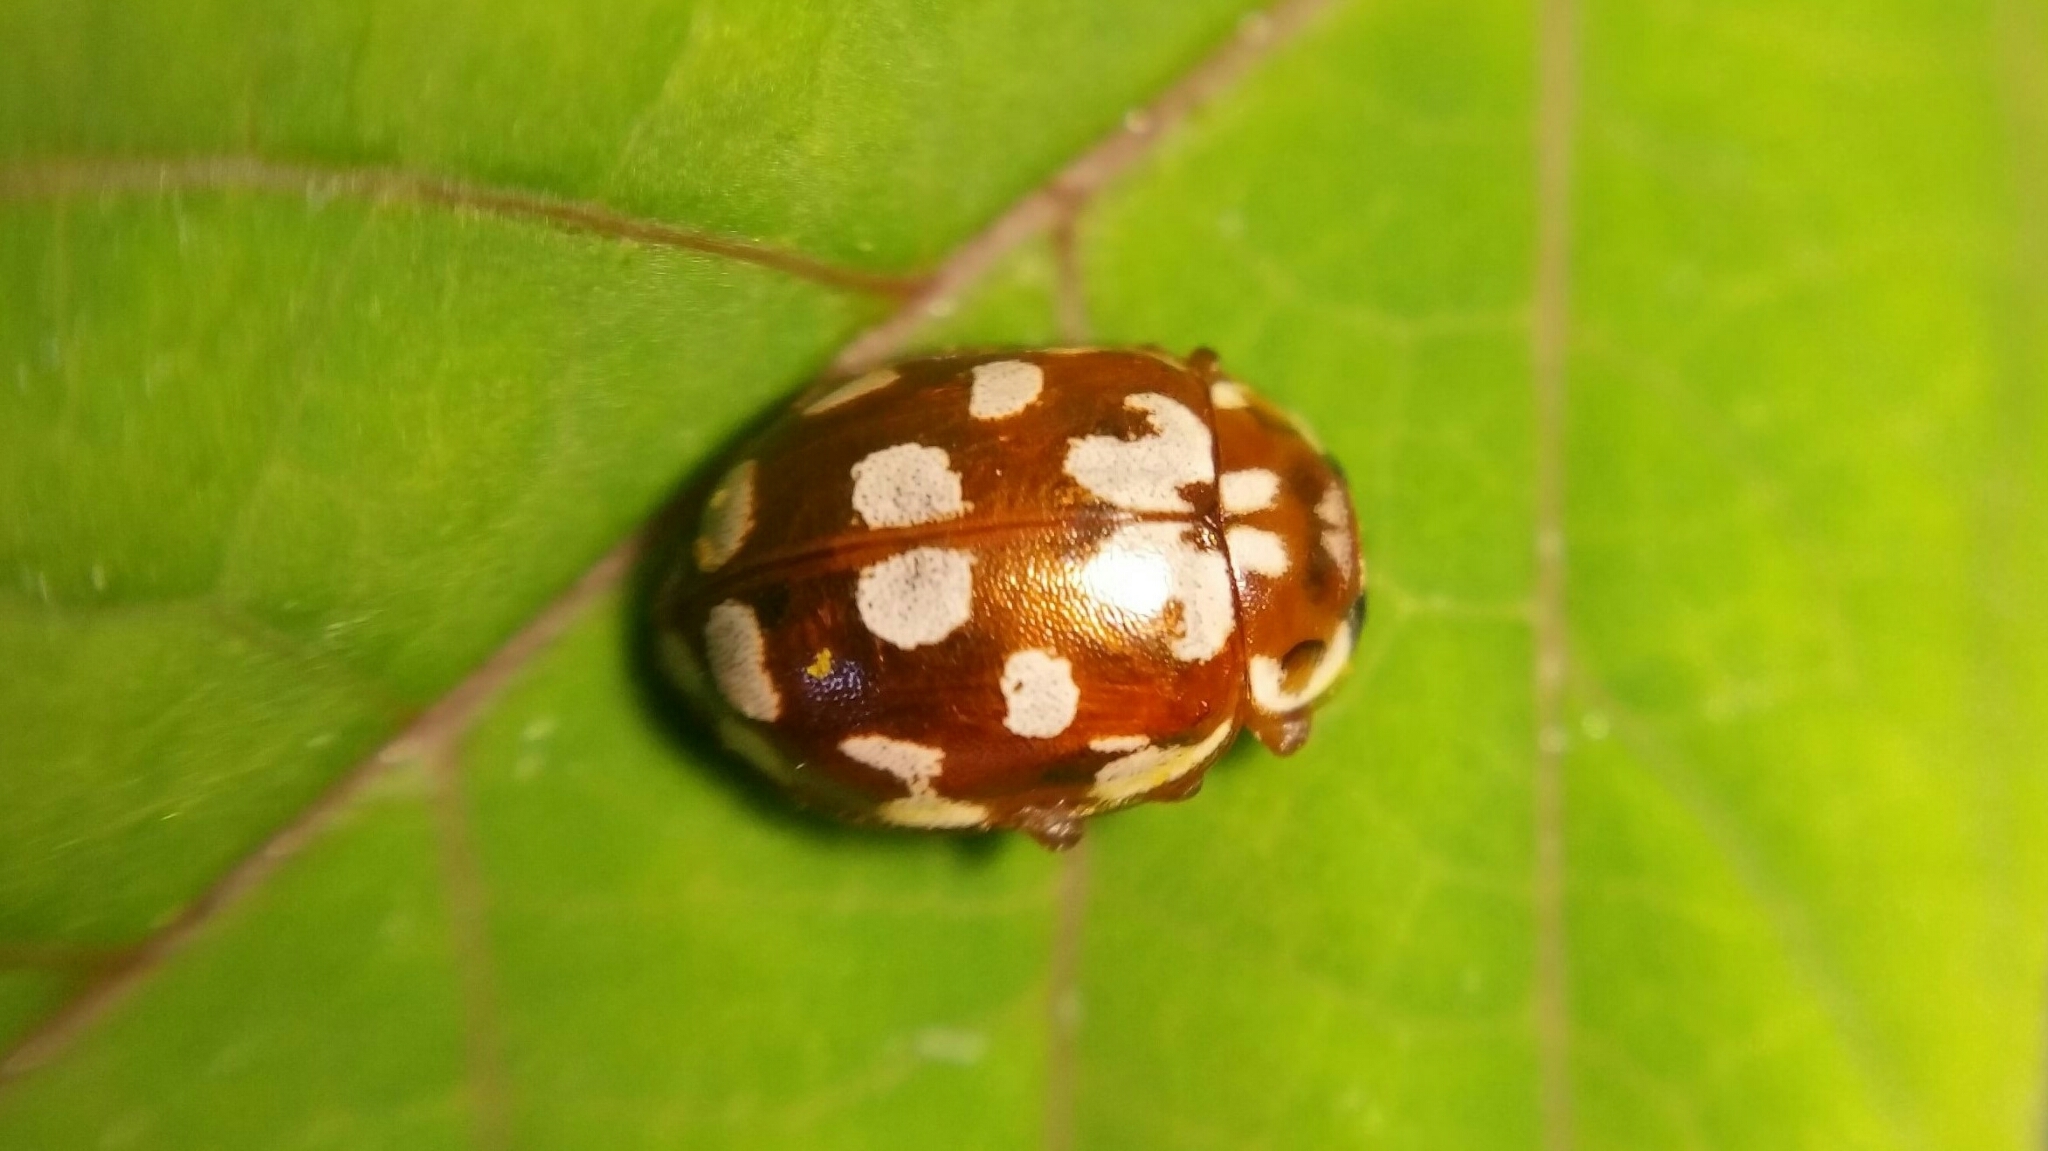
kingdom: Animalia
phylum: Arthropoda
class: Insecta
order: Coleoptera
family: Coccinellidae
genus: Myrrha
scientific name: Myrrha octodecimguttata
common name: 18-spot ladybird
